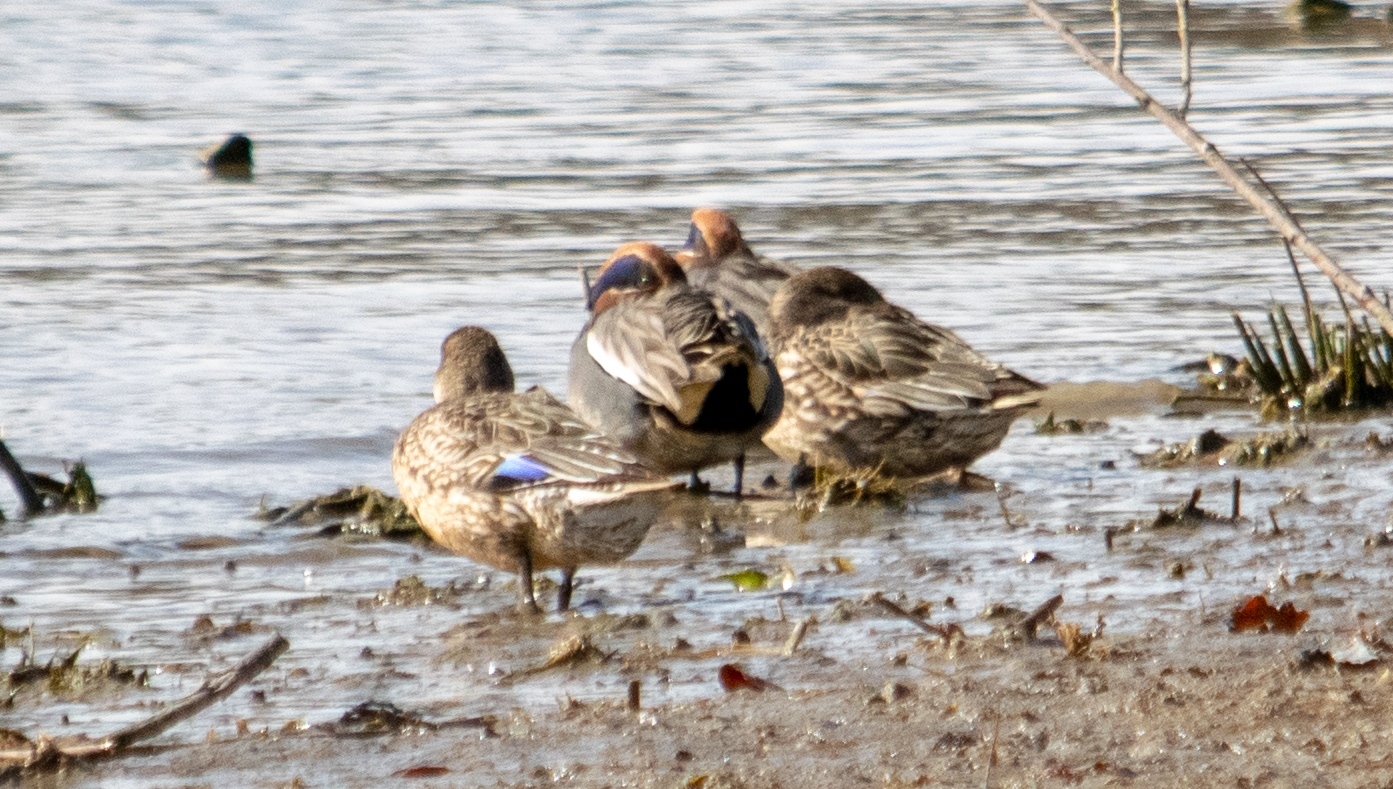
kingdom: Animalia
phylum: Chordata
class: Aves
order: Anseriformes
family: Anatidae
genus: Anas
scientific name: Anas crecca
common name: Eurasian teal
